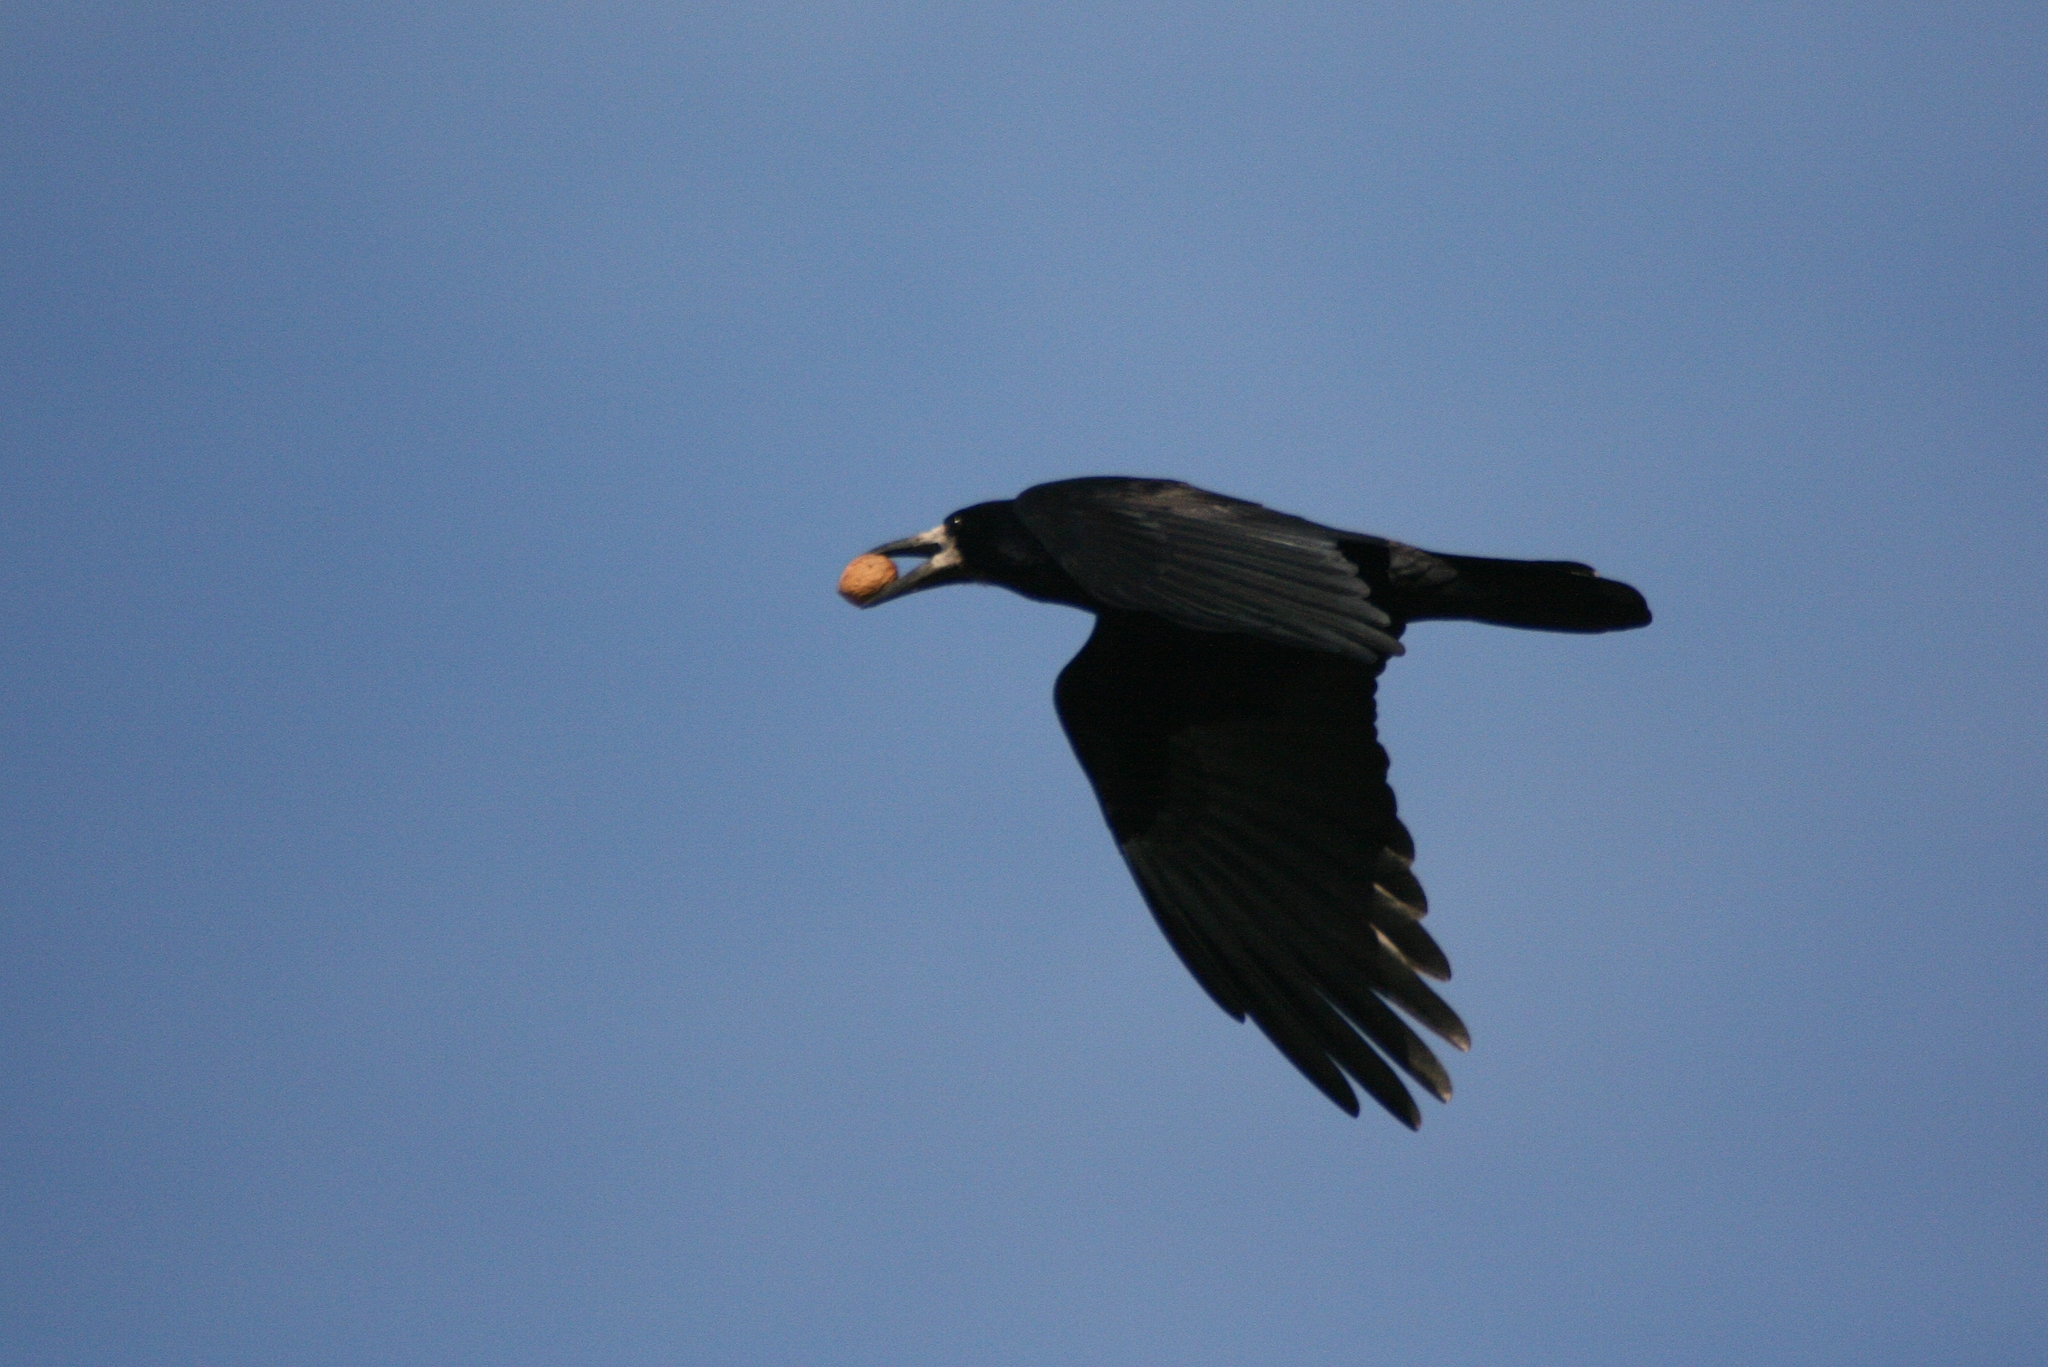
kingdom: Animalia
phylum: Chordata
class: Aves
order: Passeriformes
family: Corvidae
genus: Corvus
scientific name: Corvus frugilegus
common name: Rook
